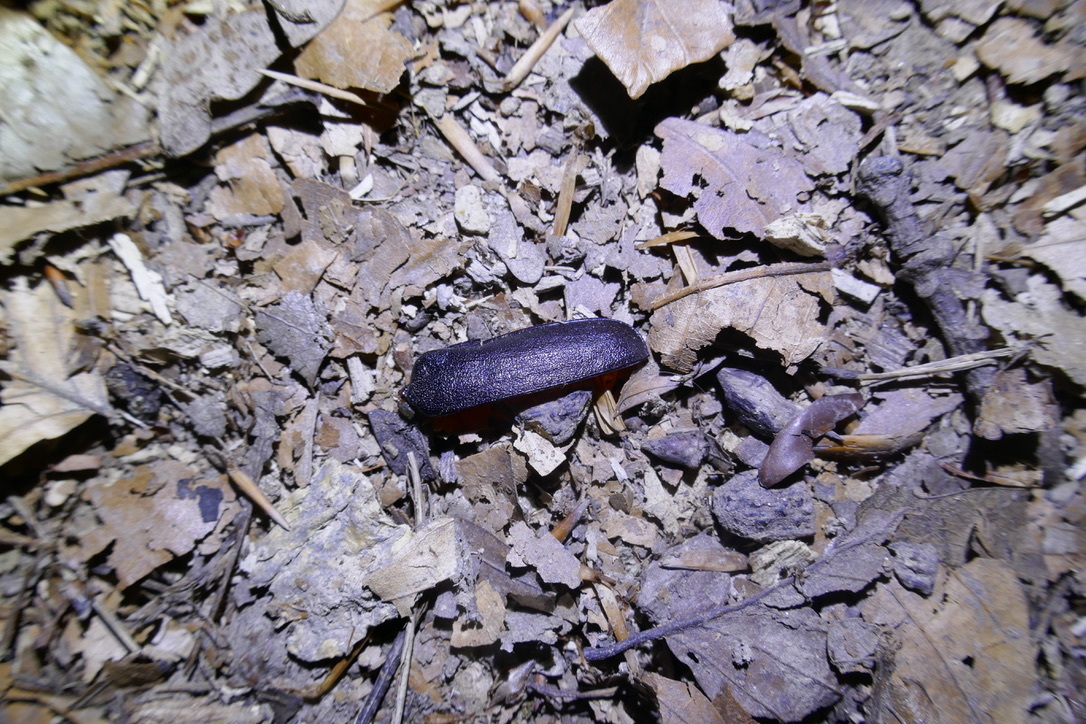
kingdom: Animalia
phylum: Arthropoda
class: Insecta
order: Coleoptera
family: Cerambycidae
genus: Prionus
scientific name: Prionus coriarius
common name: Tanner beetle
